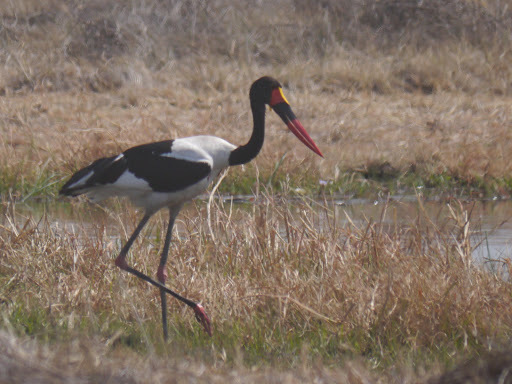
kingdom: Animalia
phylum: Chordata
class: Aves
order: Ciconiiformes
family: Ciconiidae
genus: Ephippiorhynchus
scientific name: Ephippiorhynchus senegalensis
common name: Saddle-billed stork
